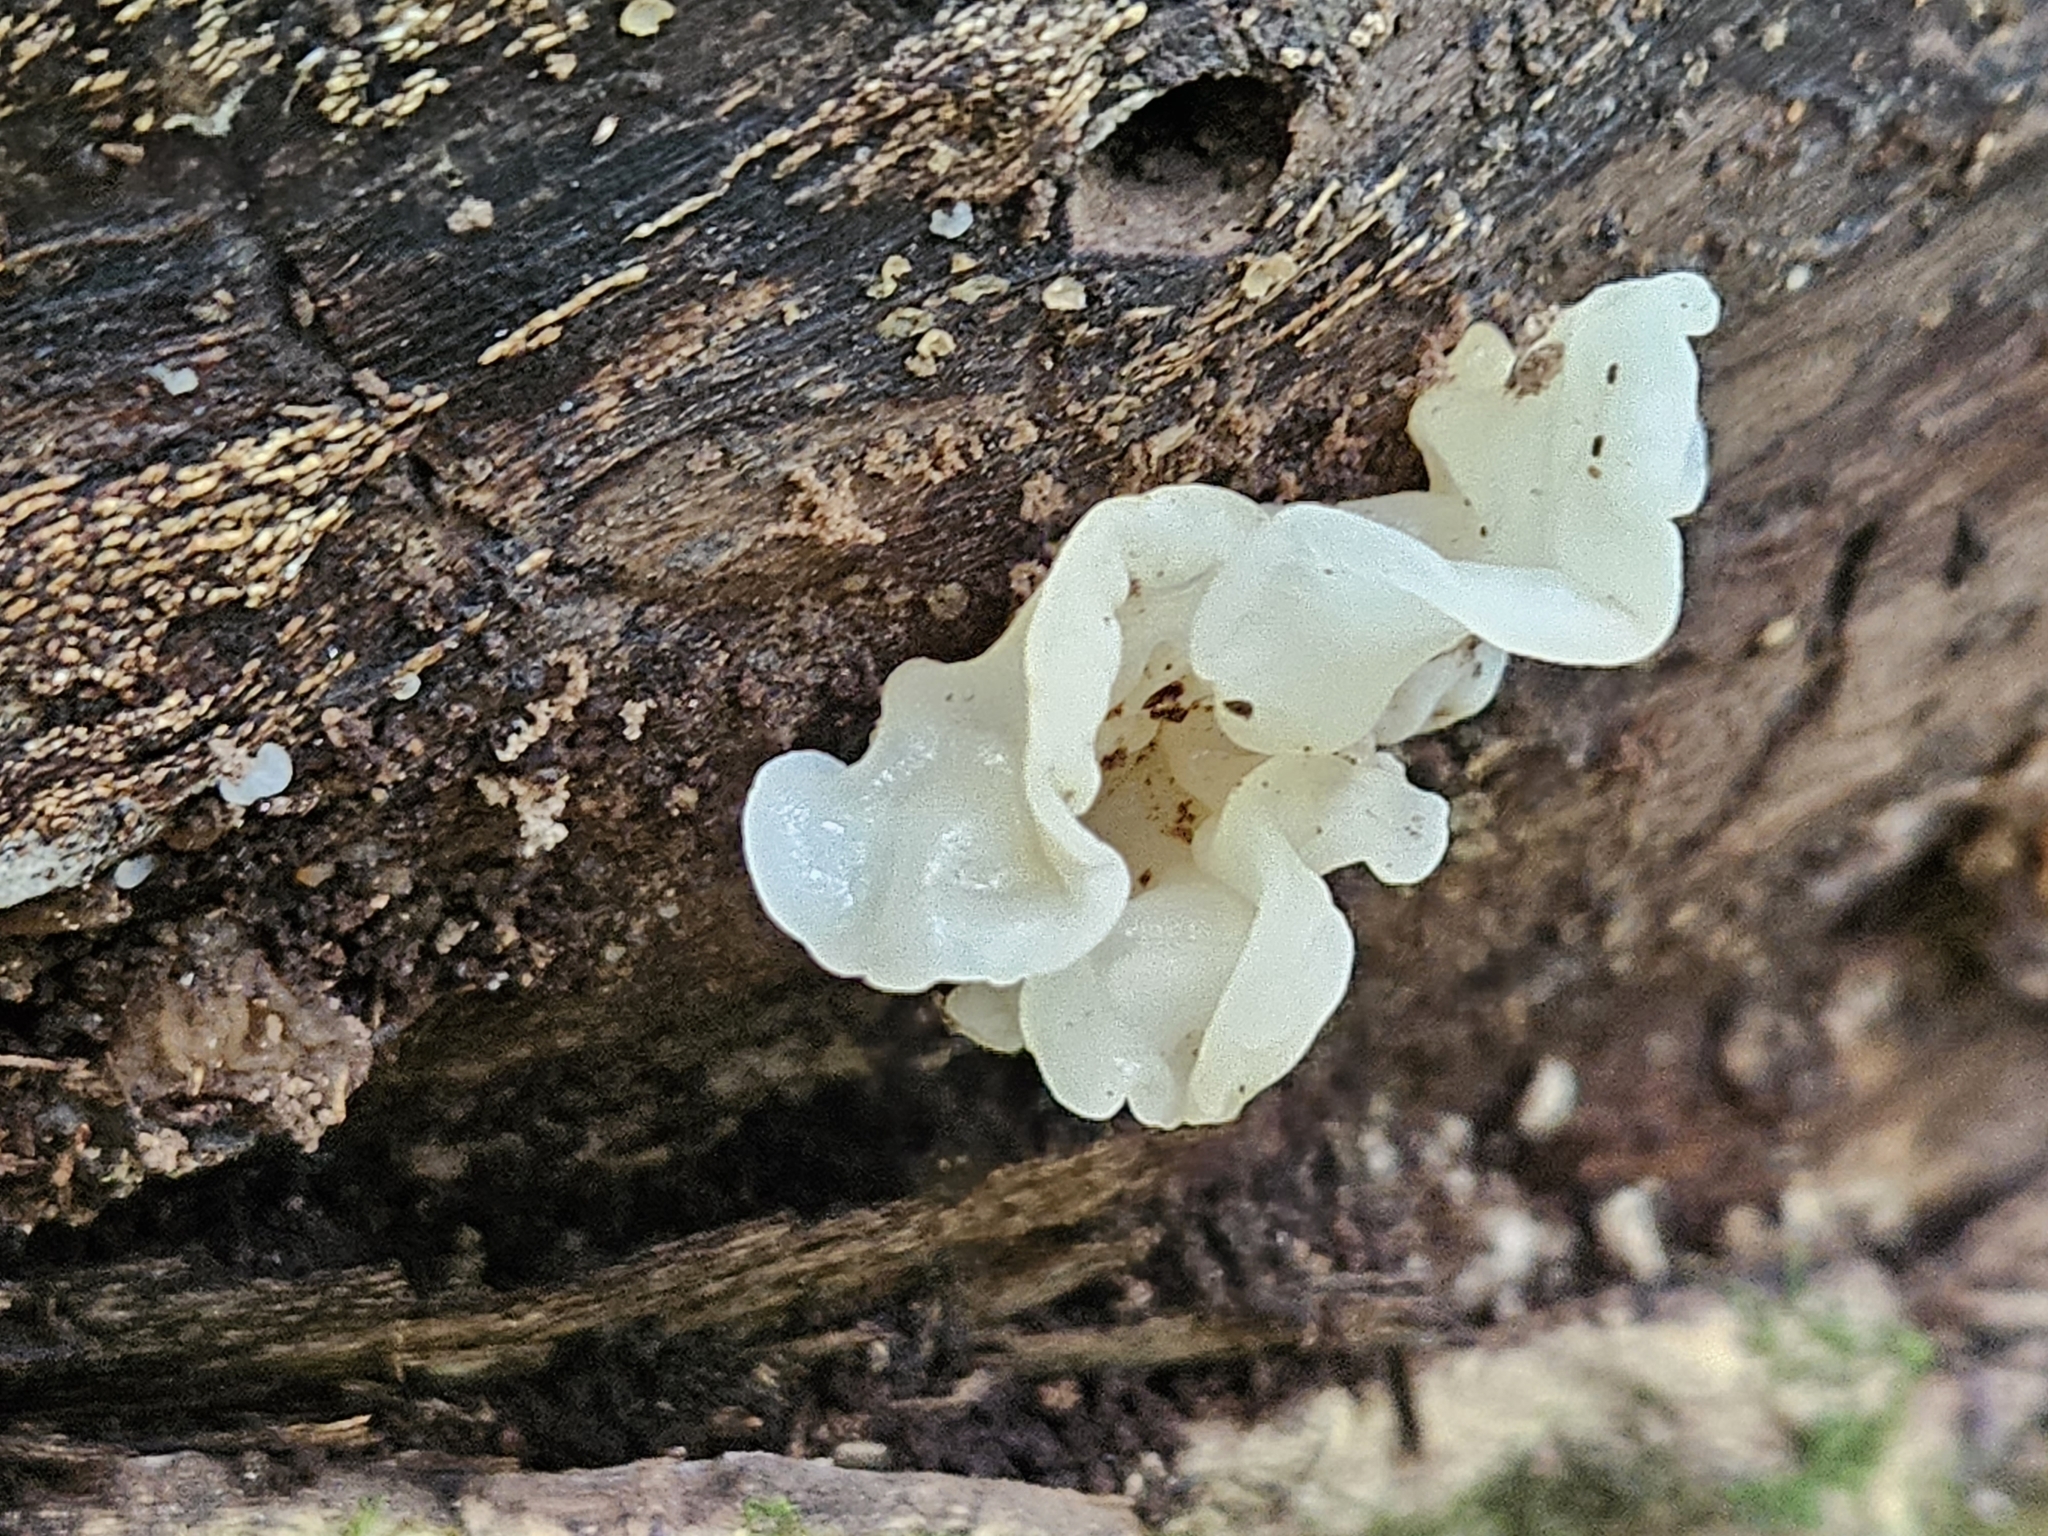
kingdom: Fungi
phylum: Basidiomycota
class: Agaricomycetes
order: Auriculariales
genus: Ductifera
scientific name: Ductifera pululahuana
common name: White jelly fungus
